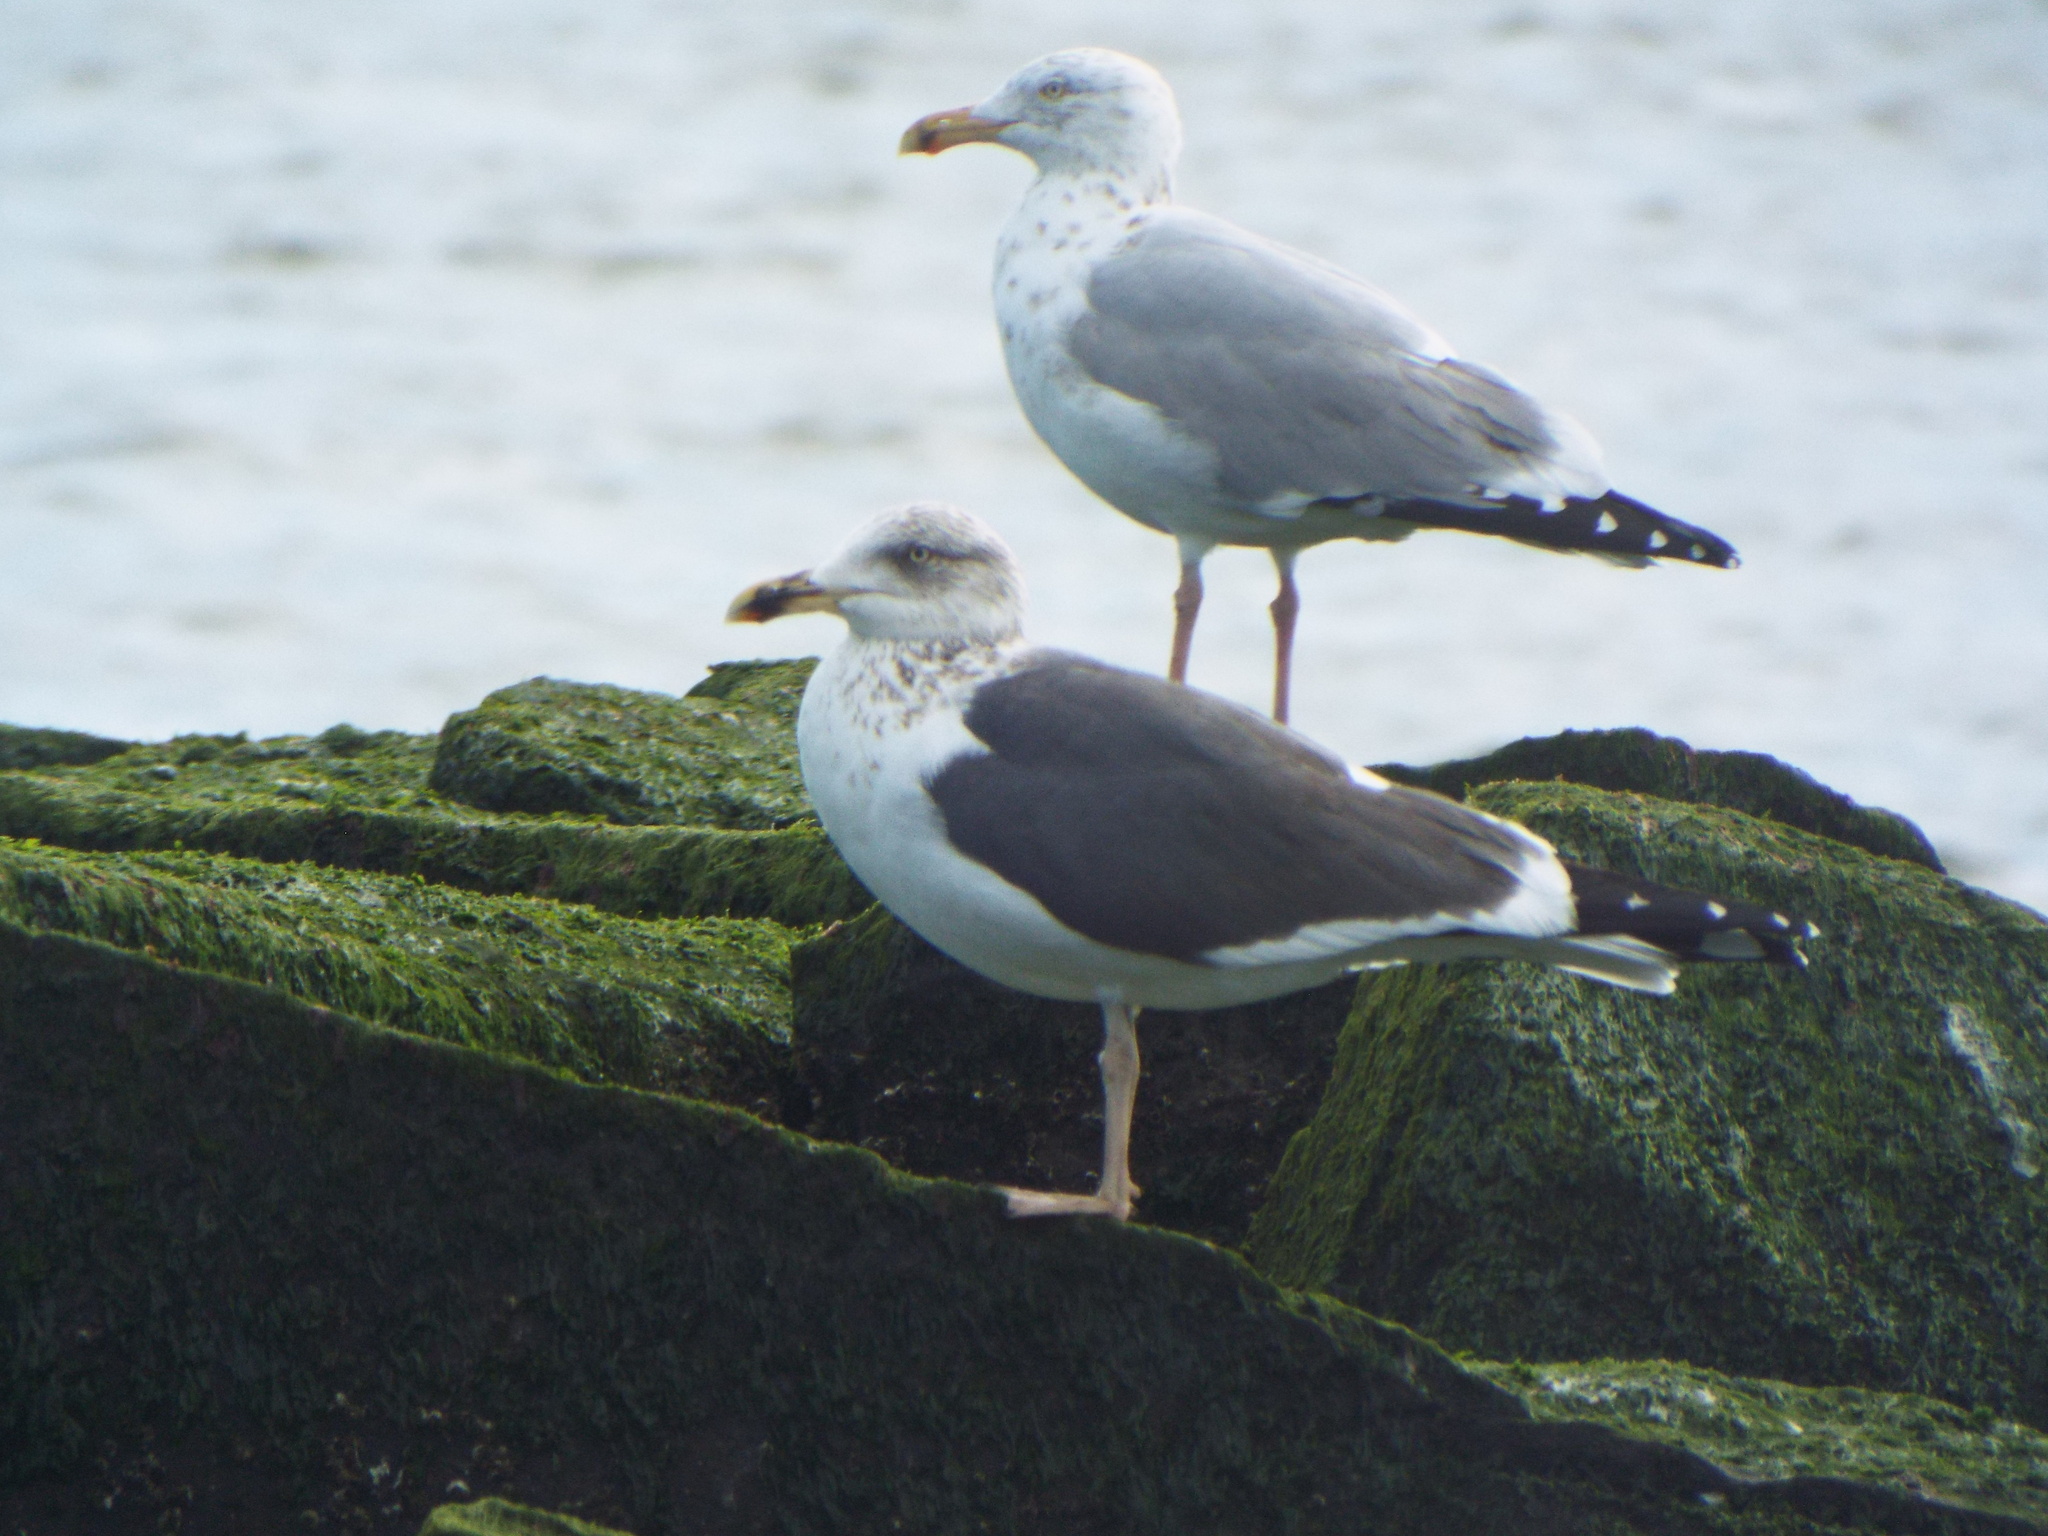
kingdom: Animalia
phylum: Chordata
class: Aves
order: Charadriiformes
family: Laridae
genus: Larus
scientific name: Larus fuscus
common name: Lesser black-backed gull
